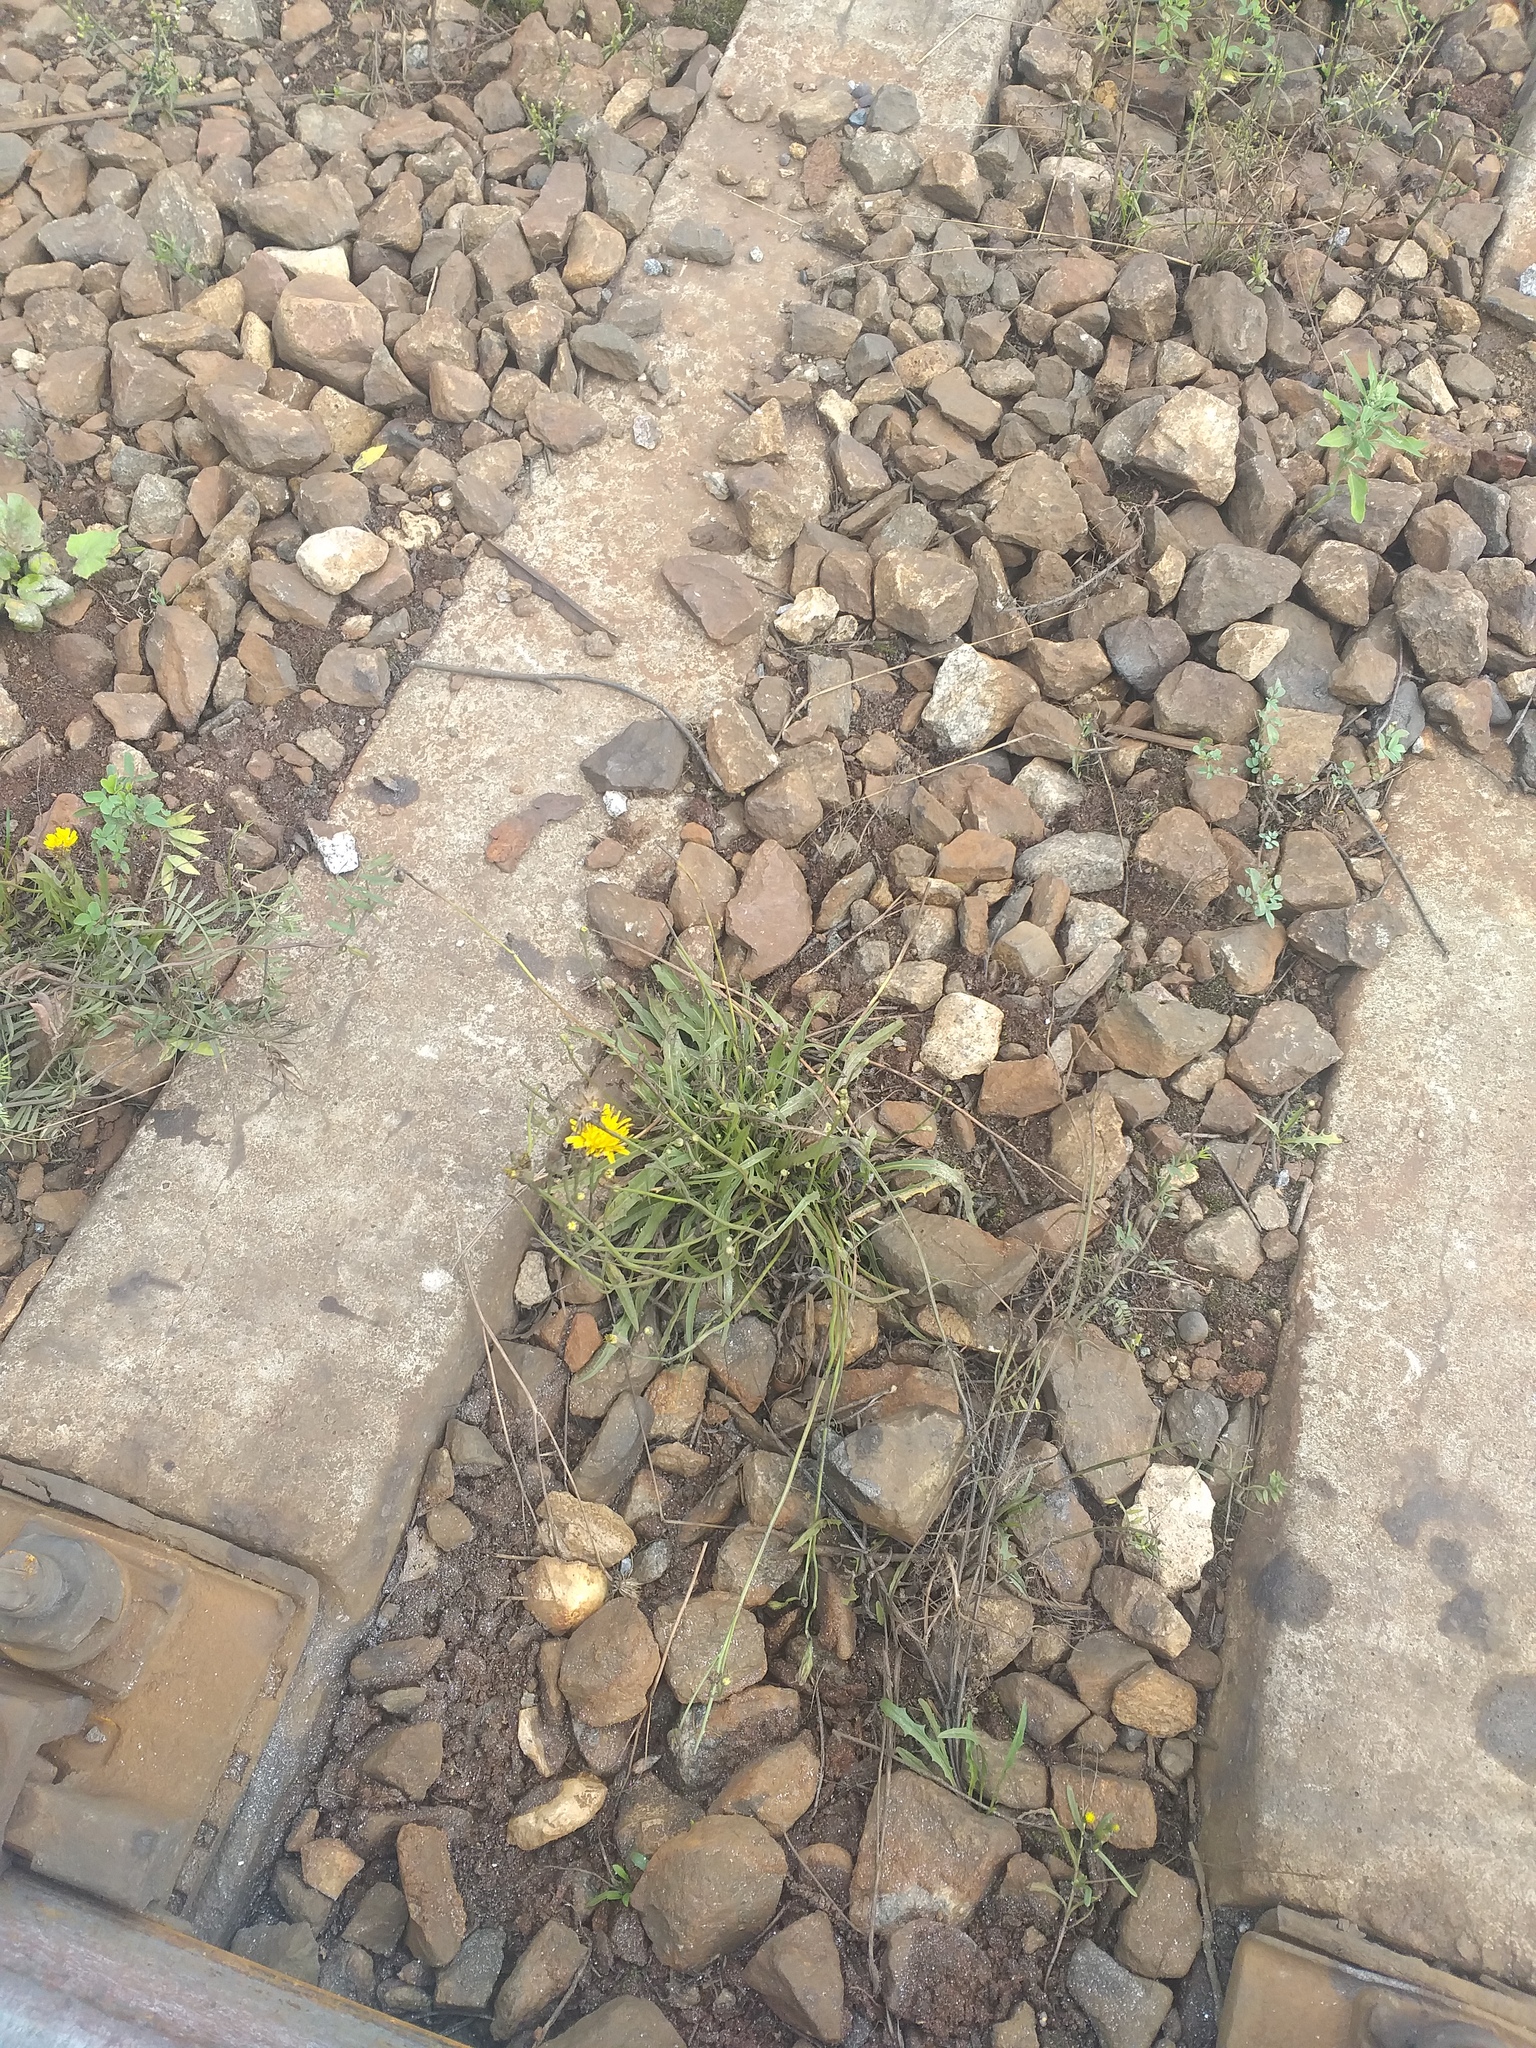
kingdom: Plantae
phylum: Tracheophyta
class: Magnoliopsida
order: Asterales
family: Asteraceae
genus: Scorzoneroides
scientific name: Scorzoneroides autumnalis
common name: Autumn hawkbit
